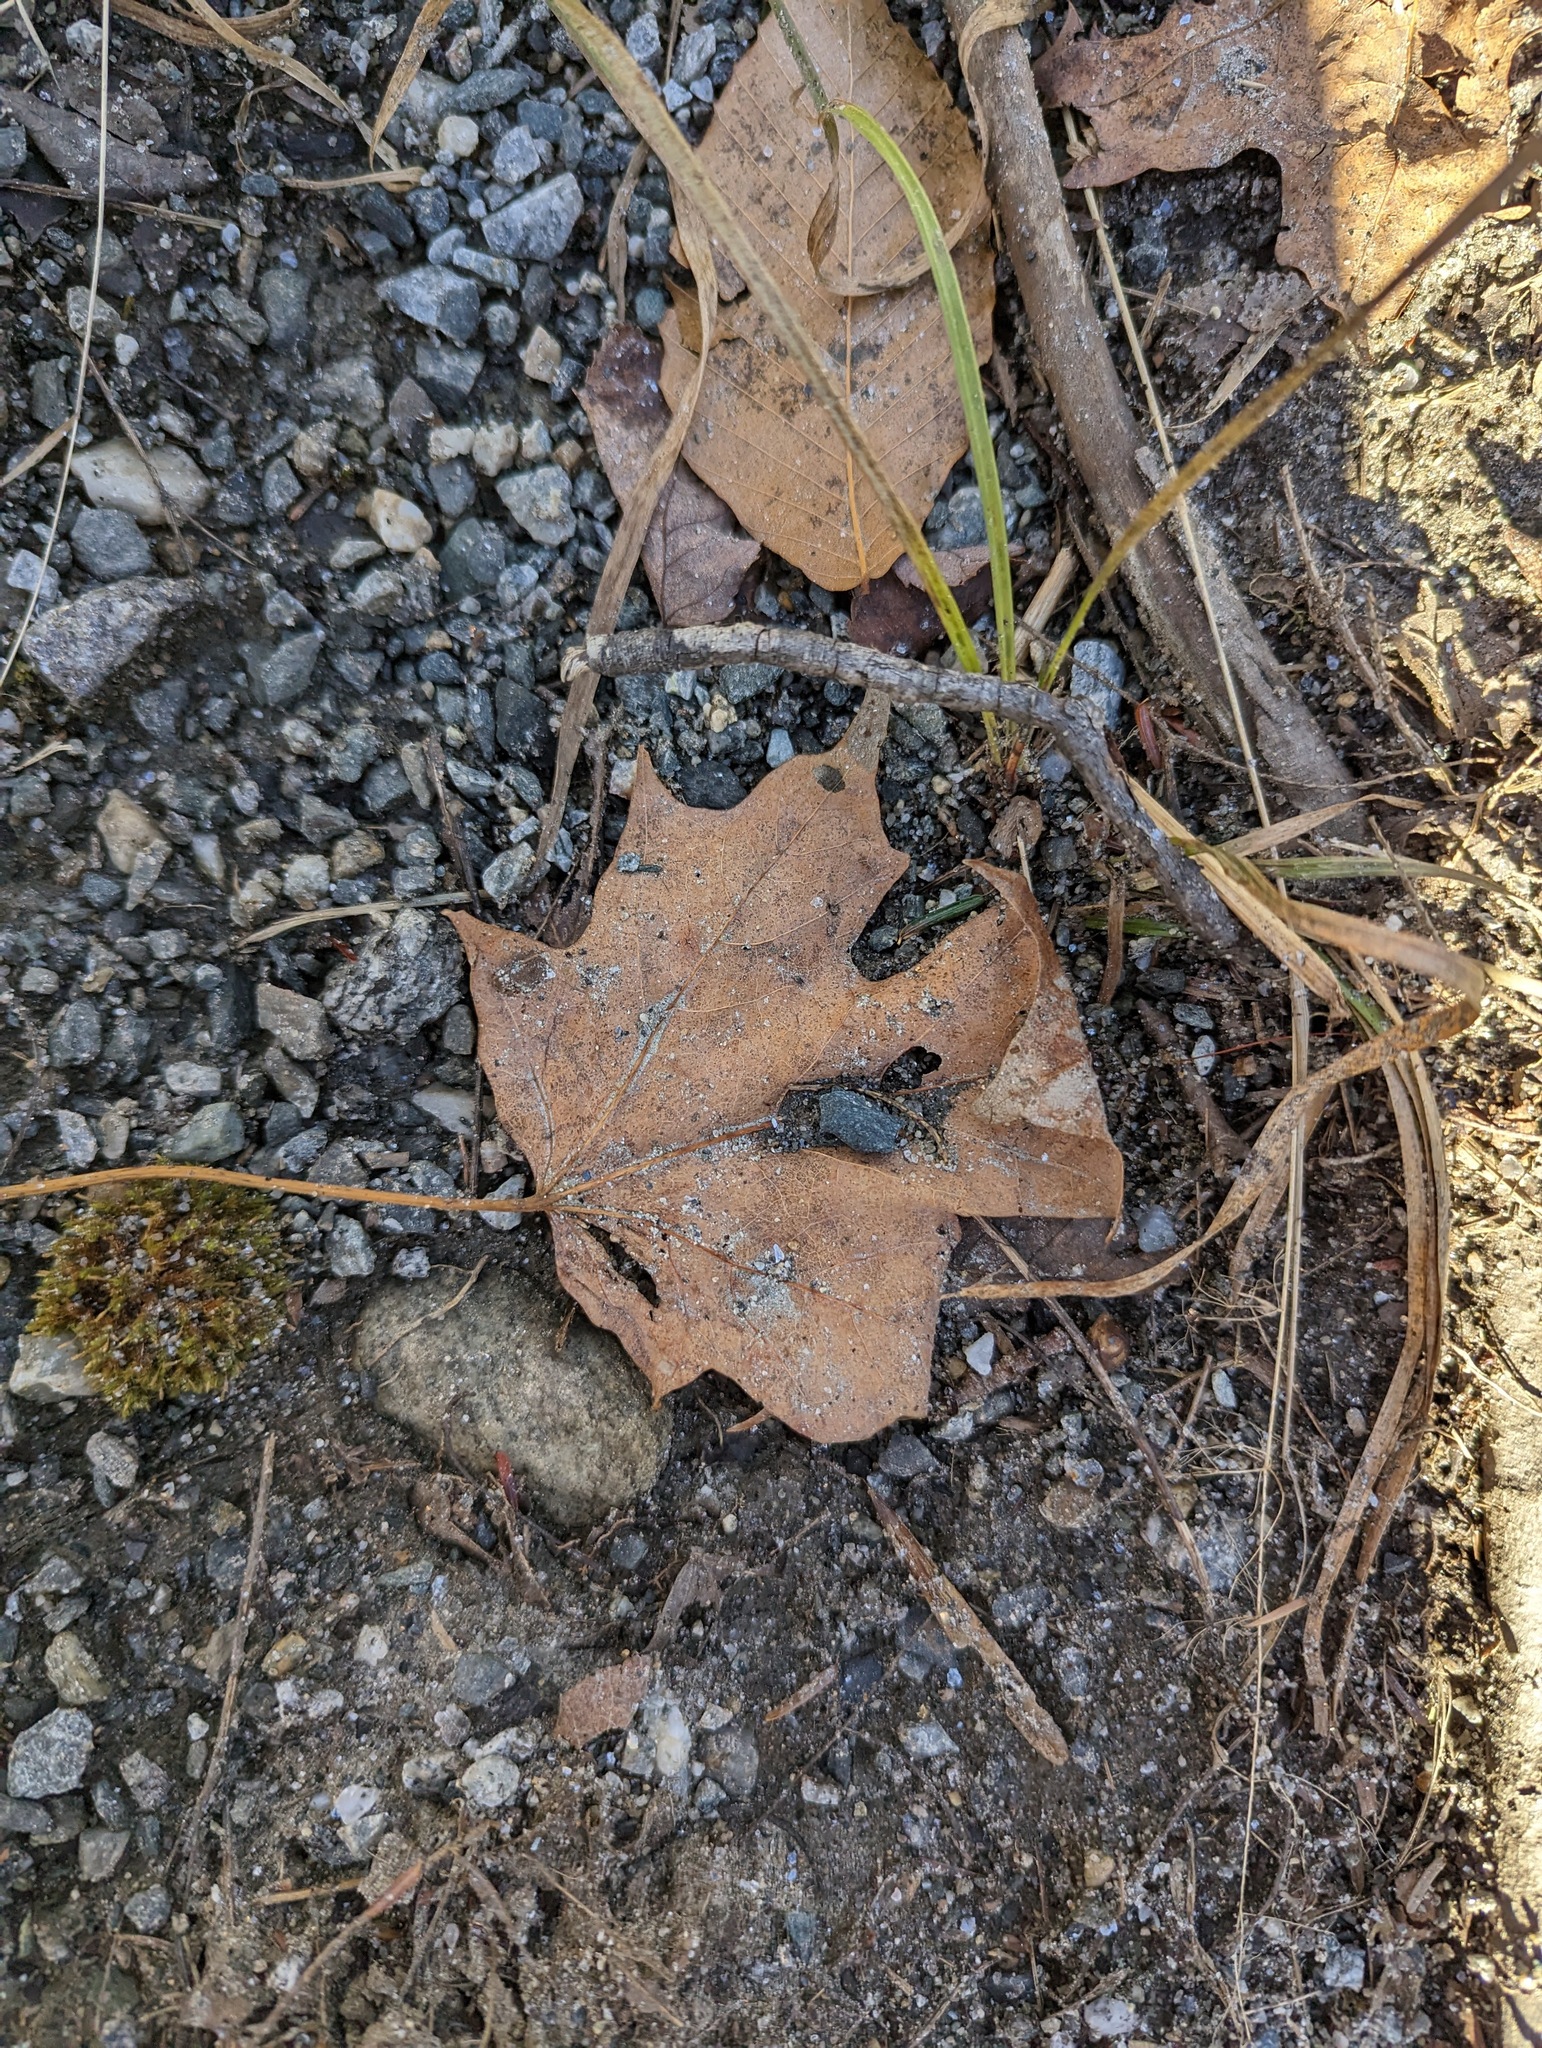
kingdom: Plantae
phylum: Tracheophyta
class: Magnoliopsida
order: Sapindales
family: Sapindaceae
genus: Acer
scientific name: Acer saccharum
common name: Sugar maple
